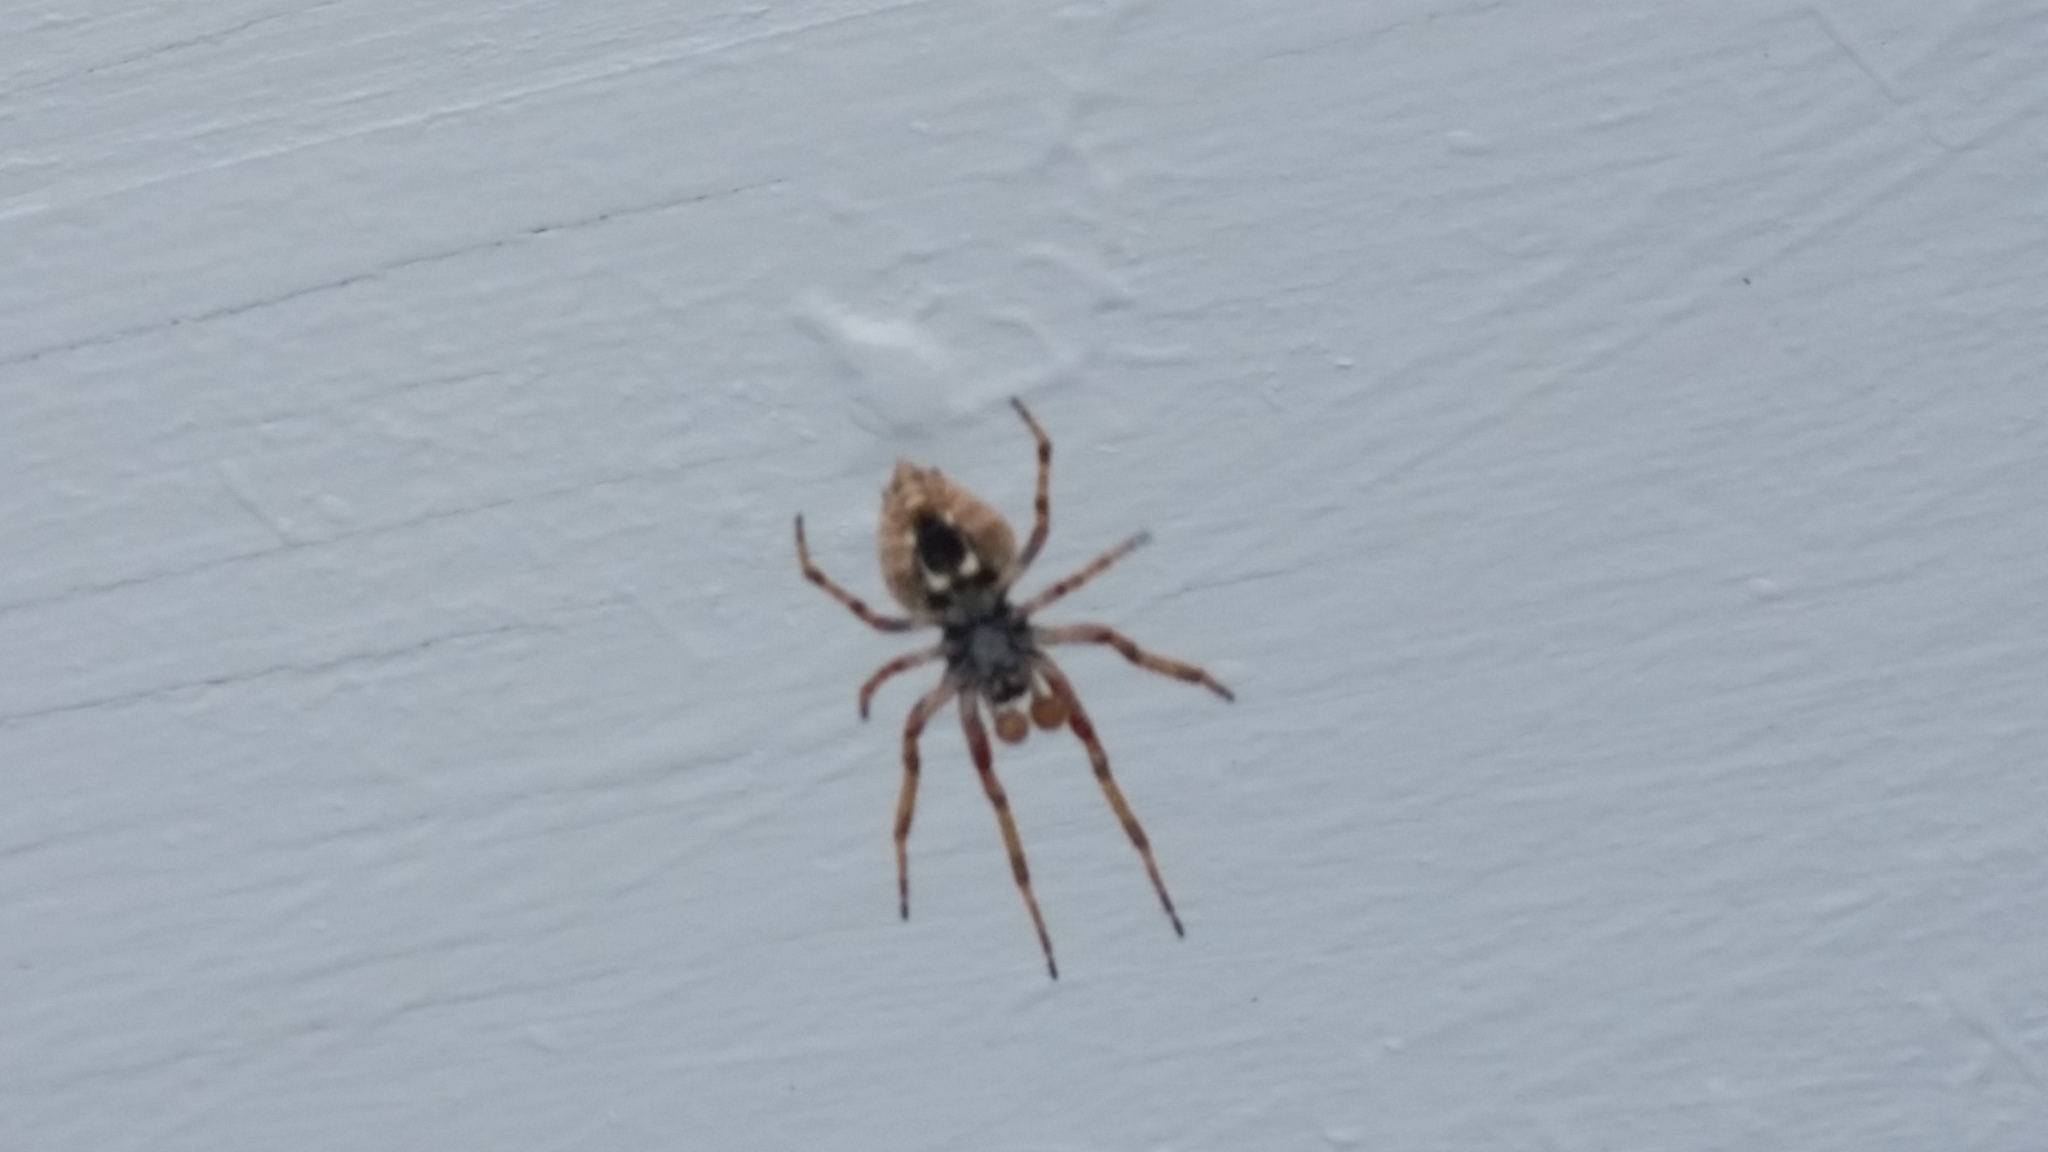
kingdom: Animalia
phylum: Arthropoda
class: Arachnida
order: Araneae
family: Araneidae
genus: Eriophora
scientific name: Eriophora pustulosa
